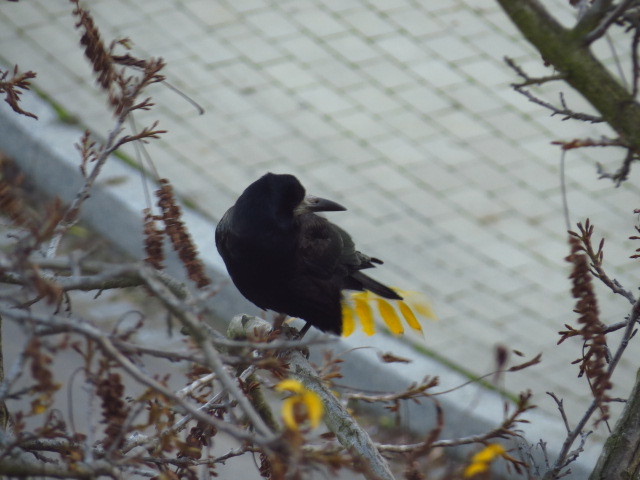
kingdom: Animalia
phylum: Chordata
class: Aves
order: Passeriformes
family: Corvidae
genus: Corvus
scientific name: Corvus frugilegus
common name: Rook
